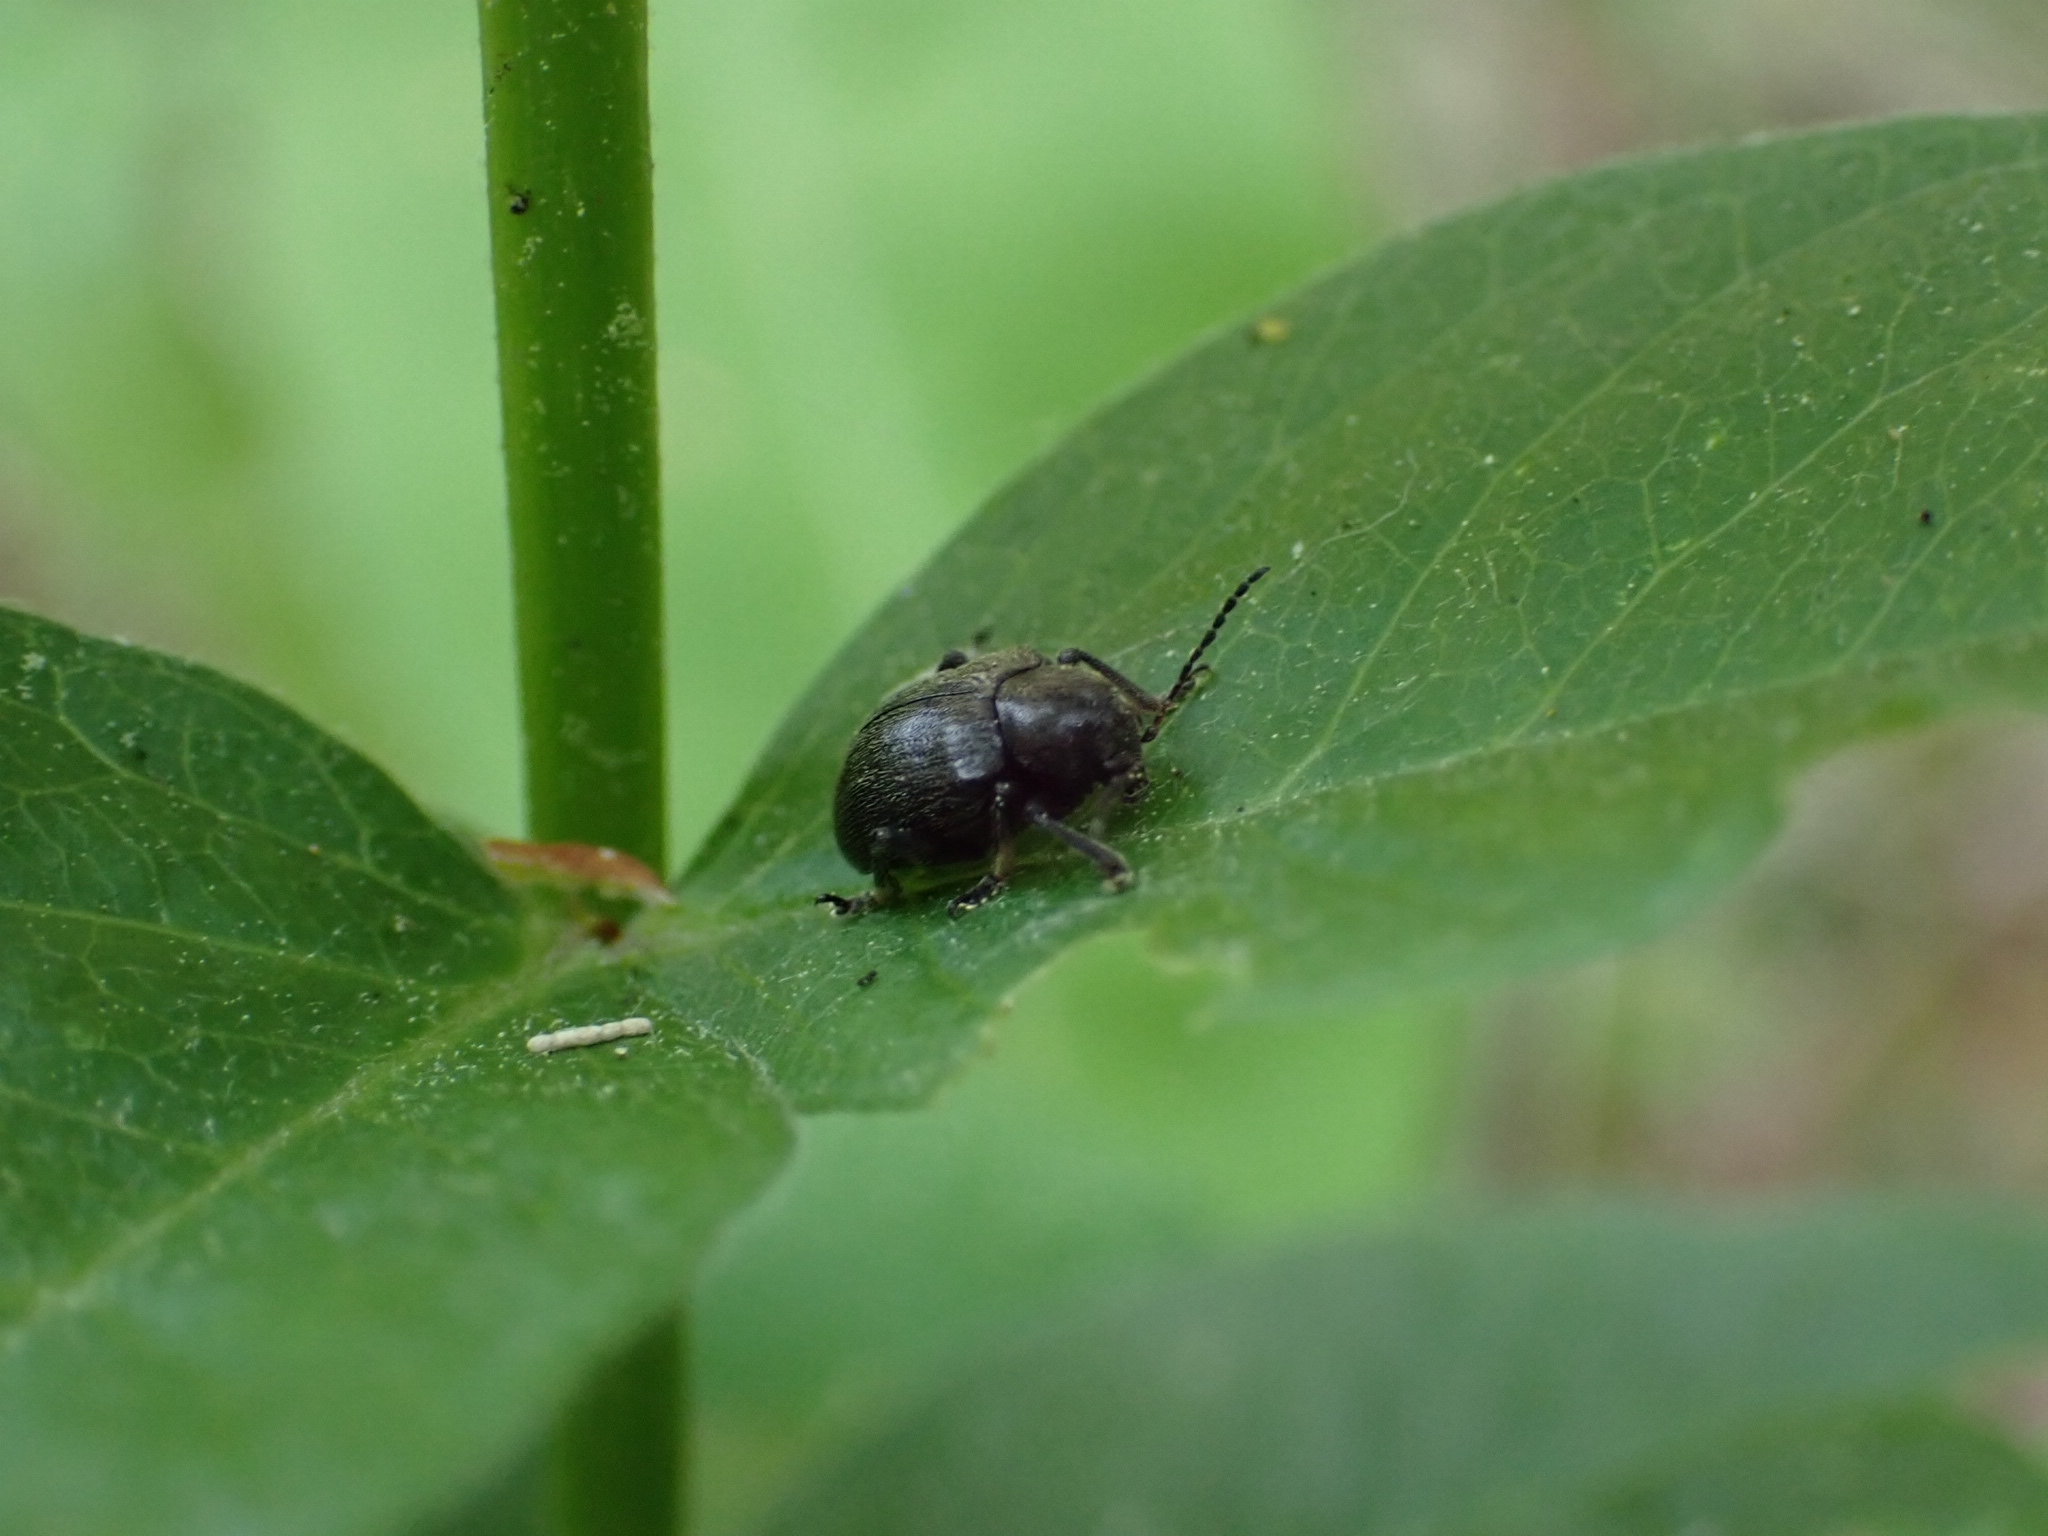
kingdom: Animalia
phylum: Arthropoda
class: Insecta
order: Coleoptera
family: Chrysomelidae
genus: Bromius
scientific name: Bromius obscurus
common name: Western grape rootworm
